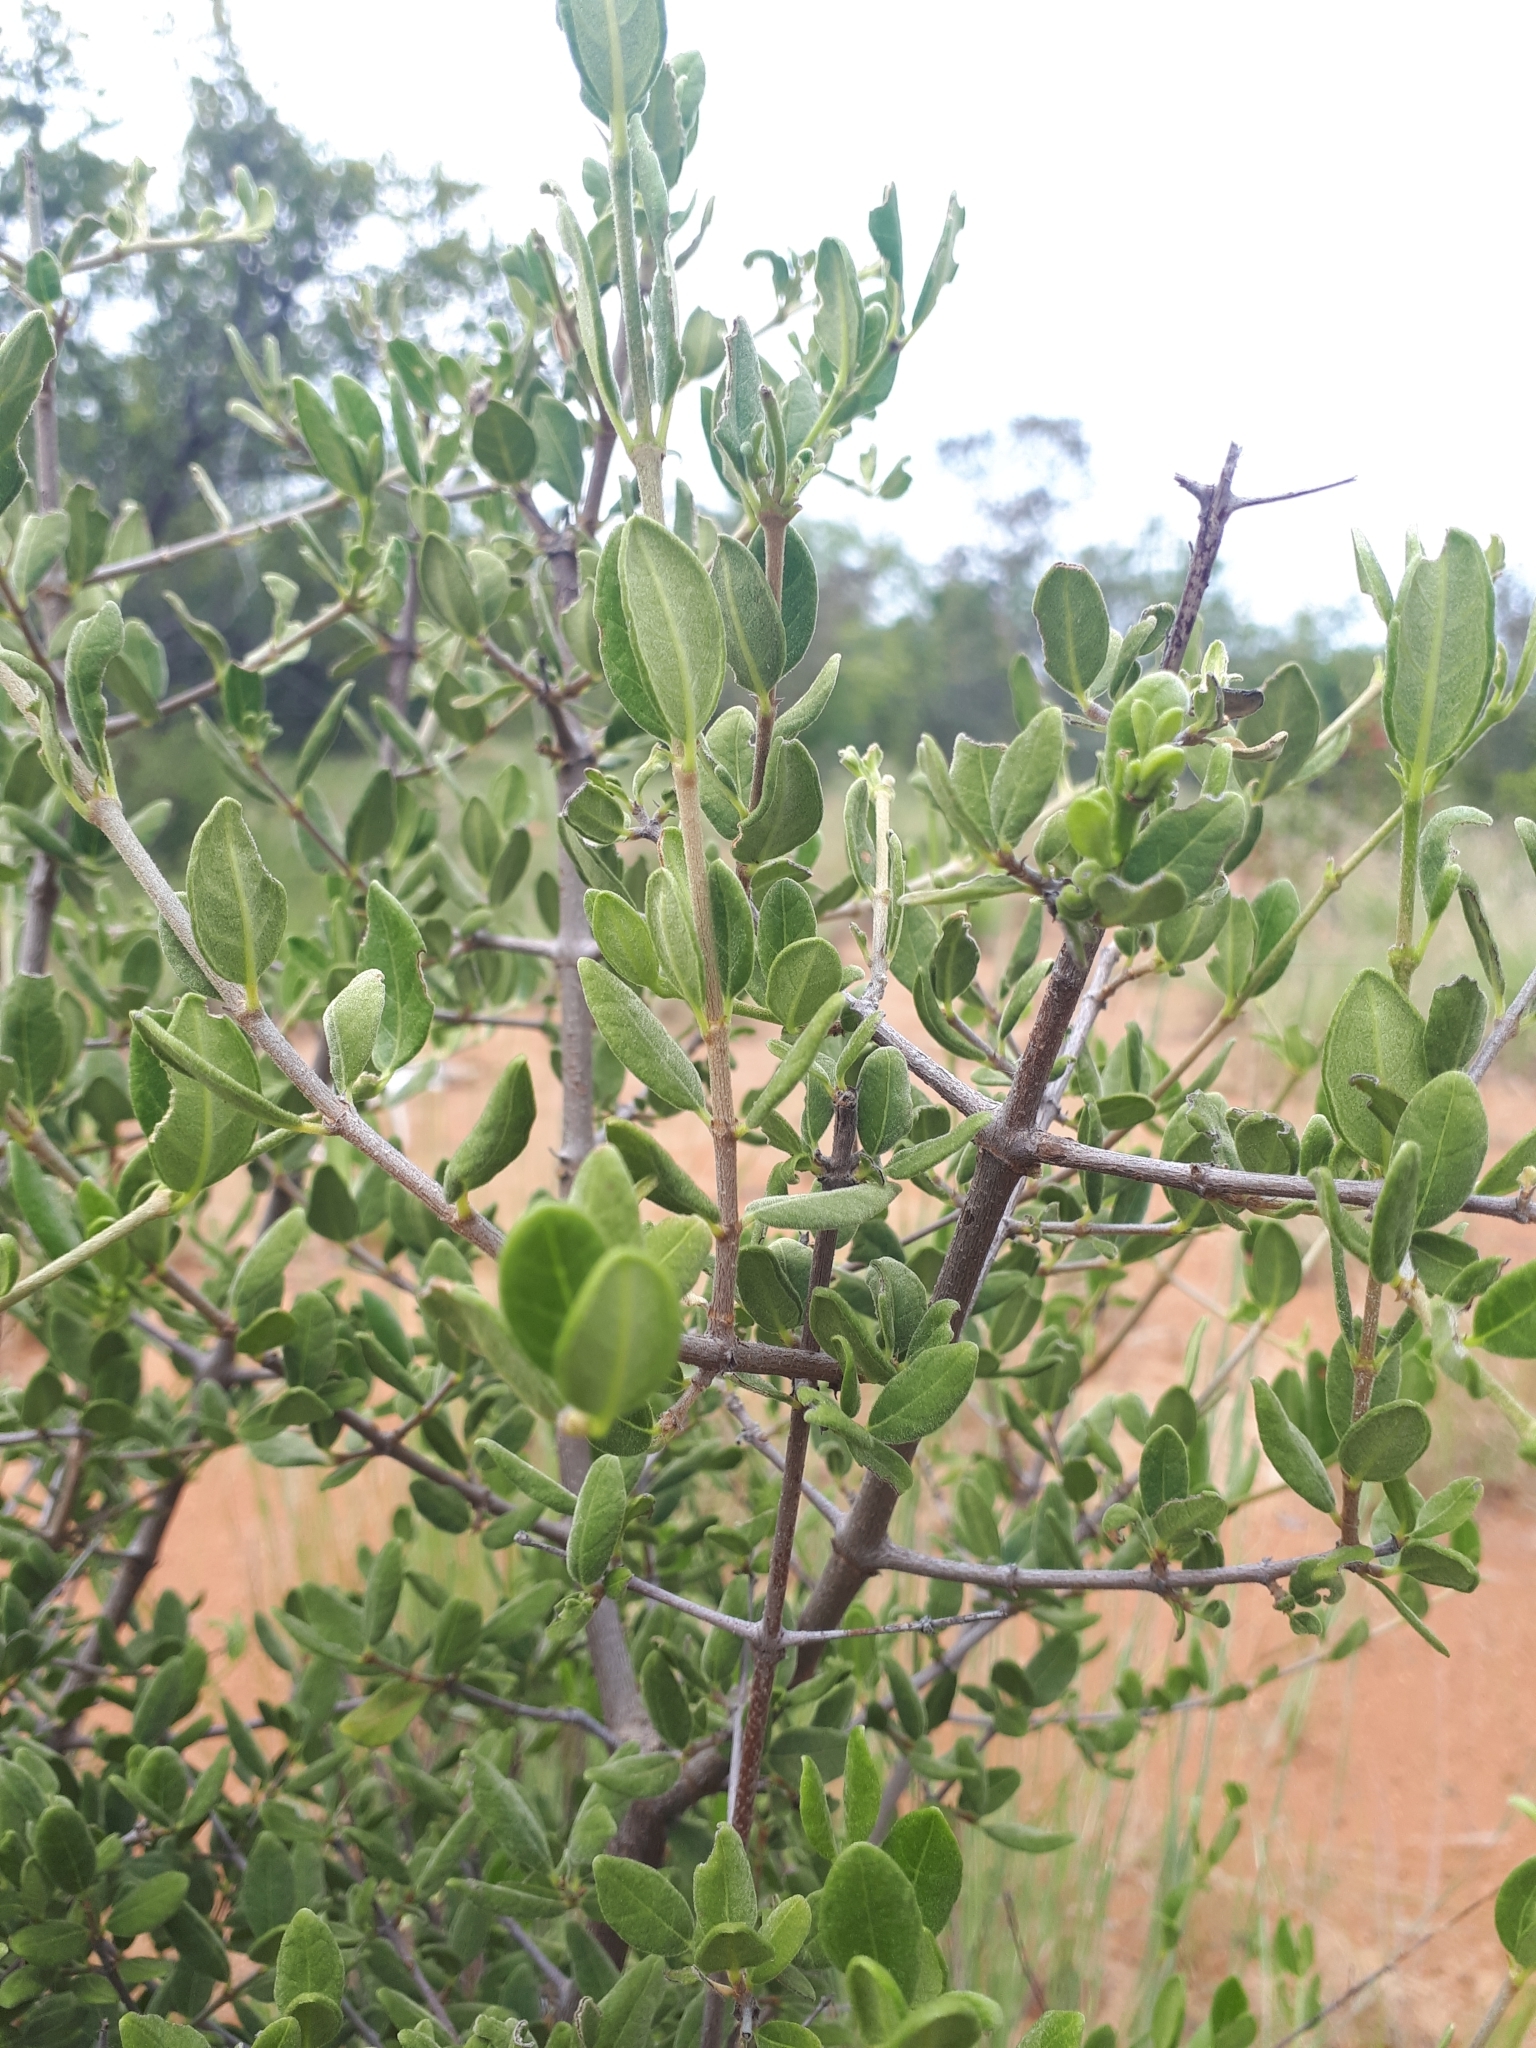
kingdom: Plantae
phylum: Tracheophyta
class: Magnoliopsida
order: Gentianales
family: Rubiaceae
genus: Vangueria
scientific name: Vangueria triflora
